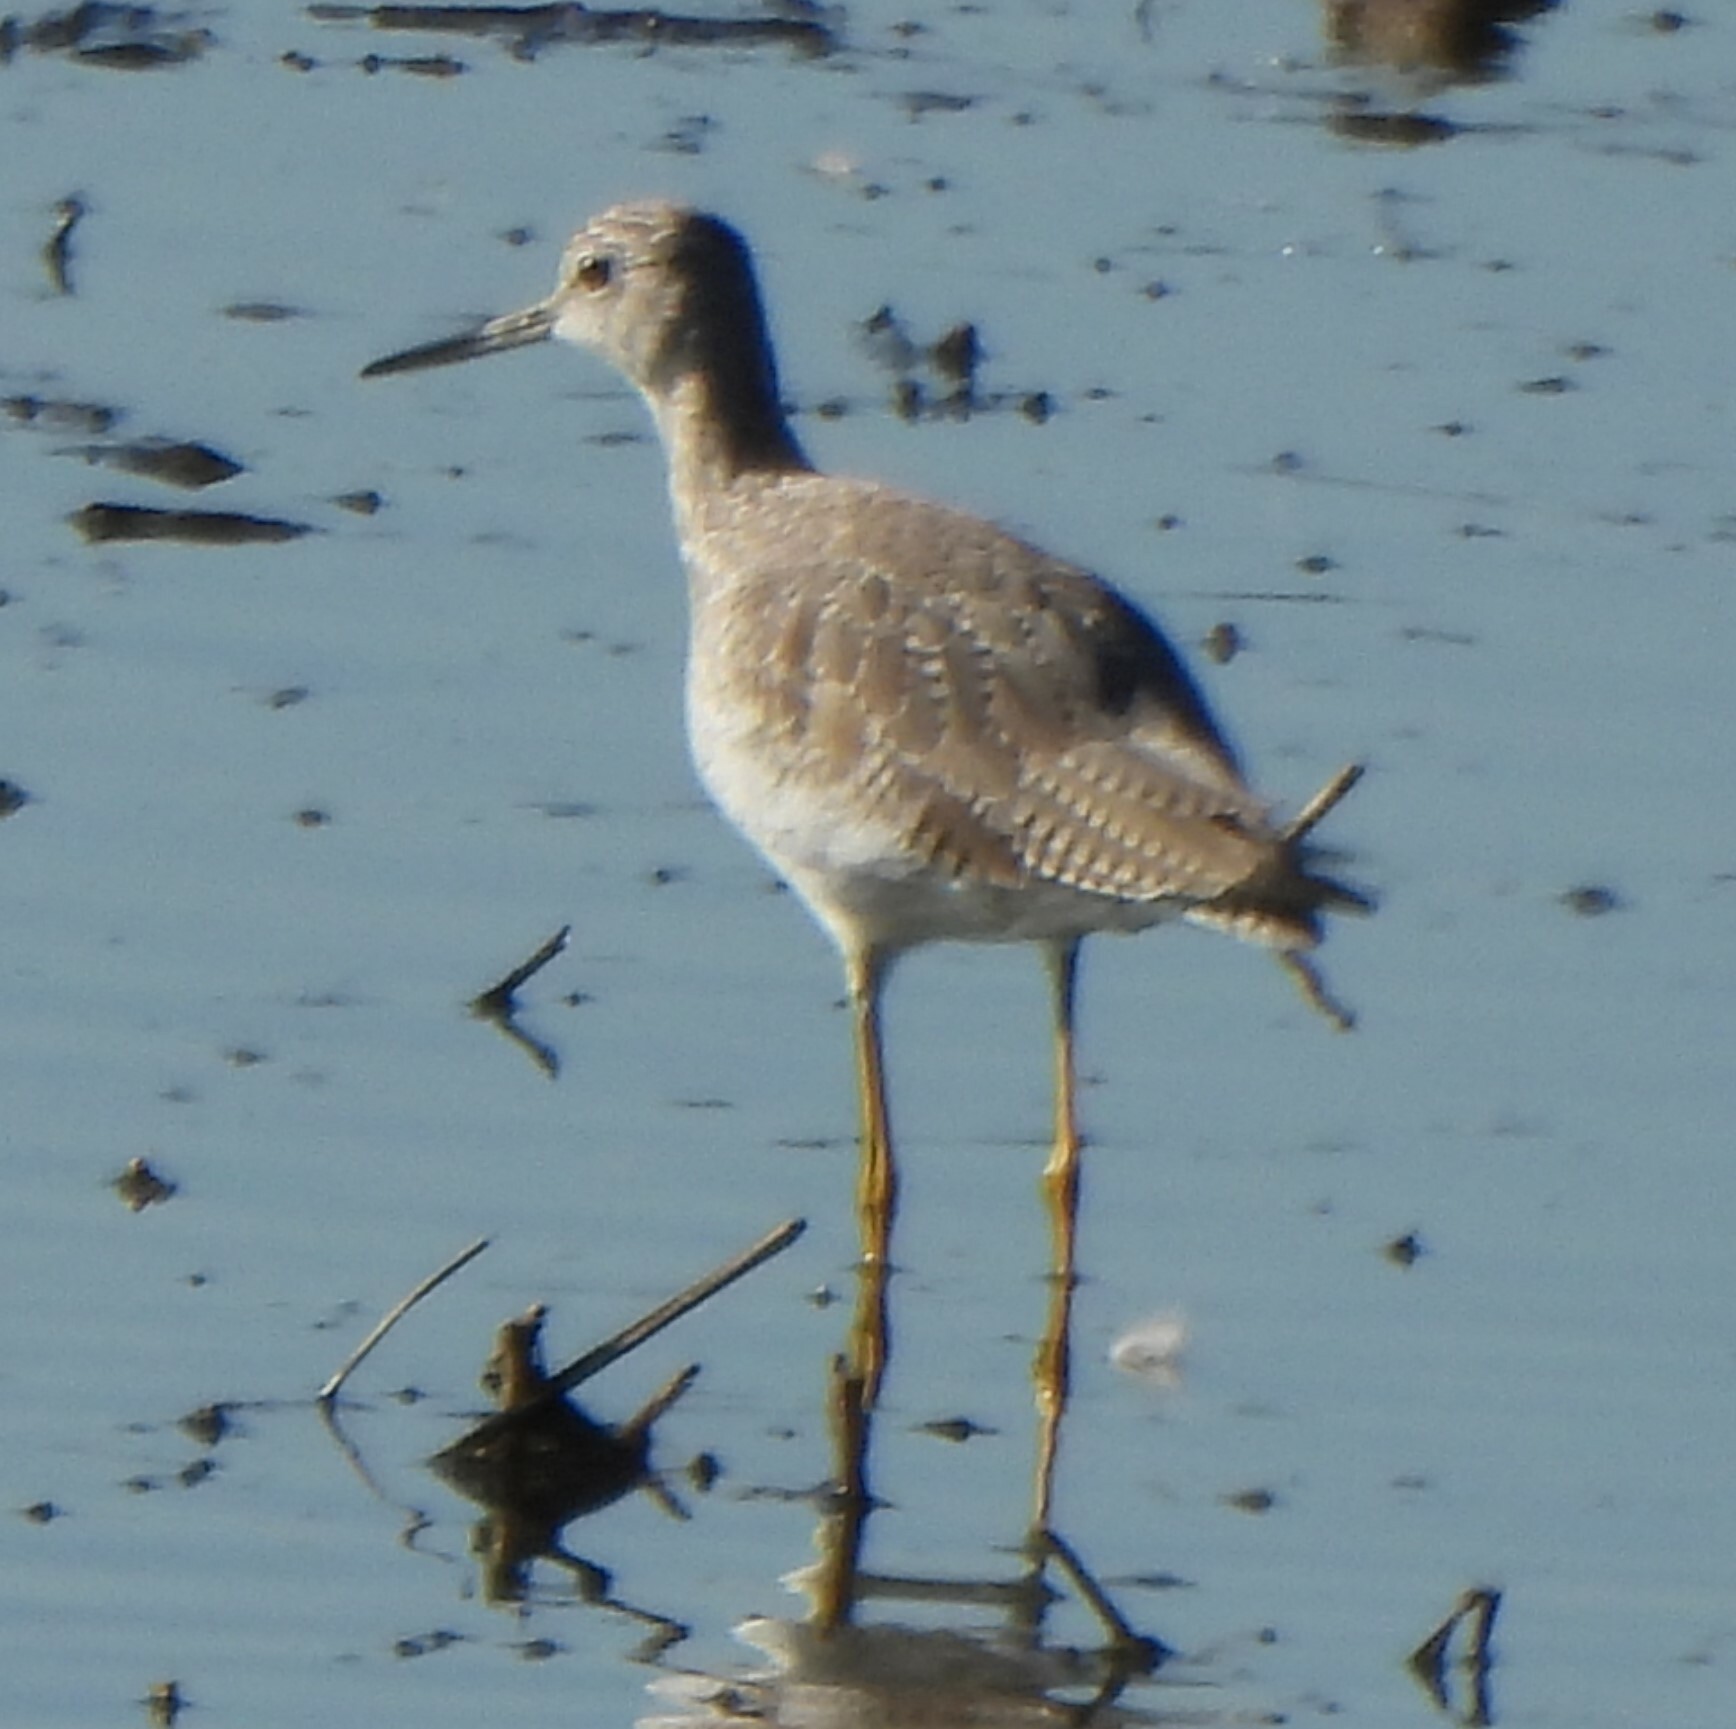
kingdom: Animalia
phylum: Chordata
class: Aves
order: Charadriiformes
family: Scolopacidae
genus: Tringa
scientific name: Tringa melanoleuca
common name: Greater yellowlegs
